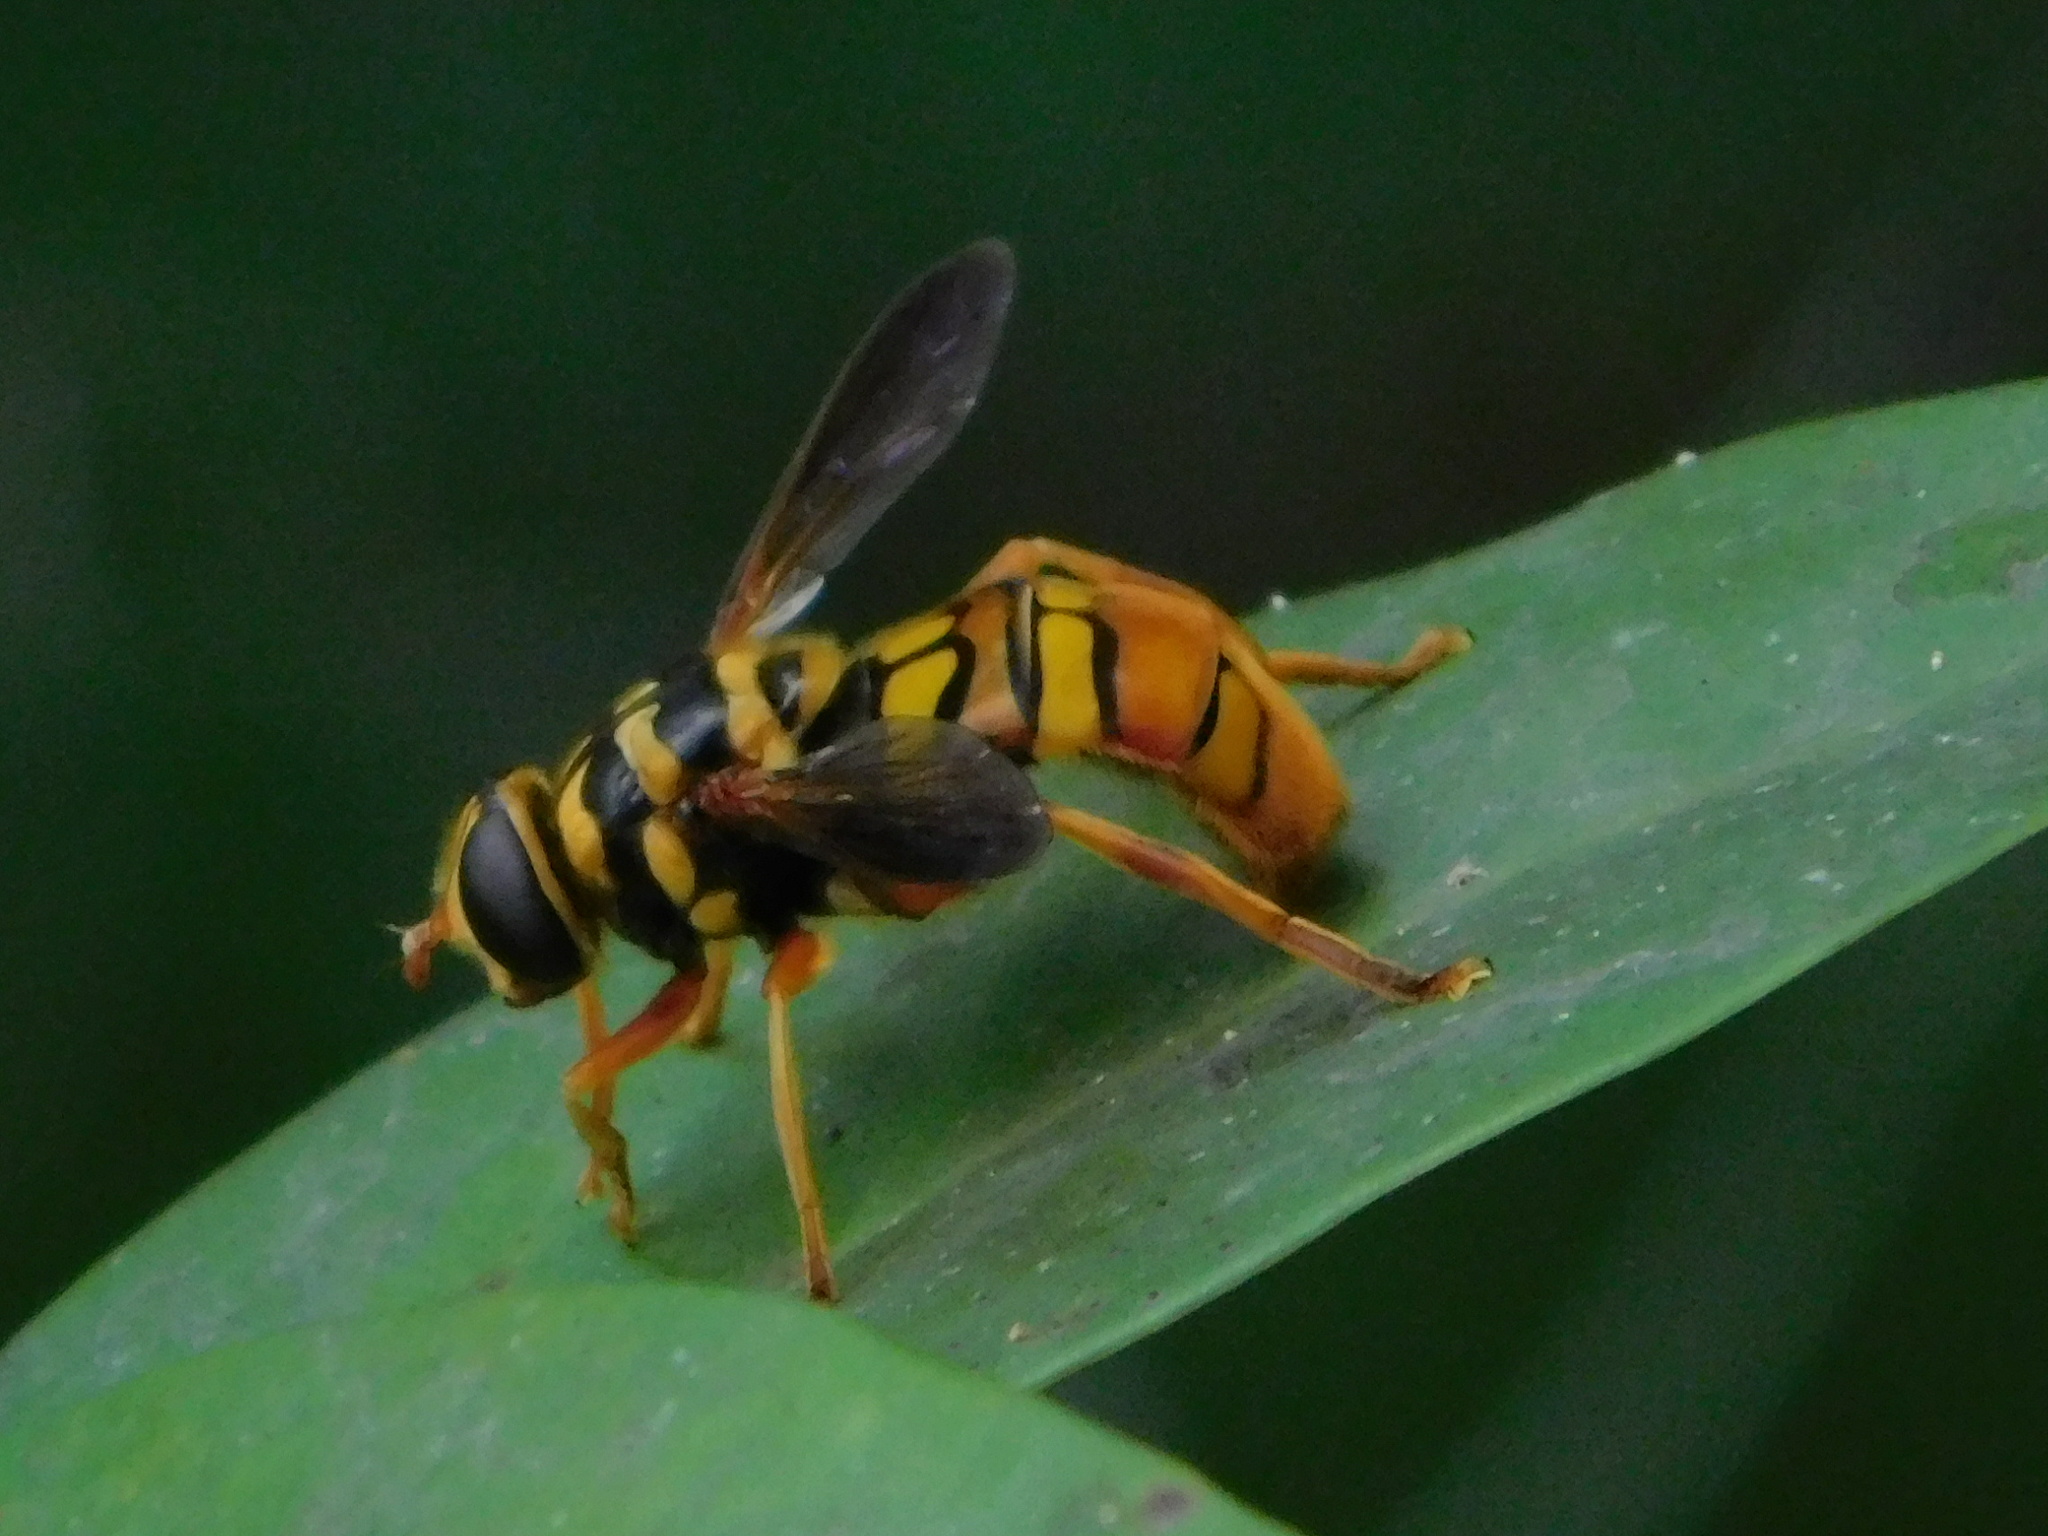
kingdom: Animalia
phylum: Arthropoda
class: Insecta
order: Diptera
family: Syrphidae
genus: Milesia
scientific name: Milesia virginiensis
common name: Virginia giant
